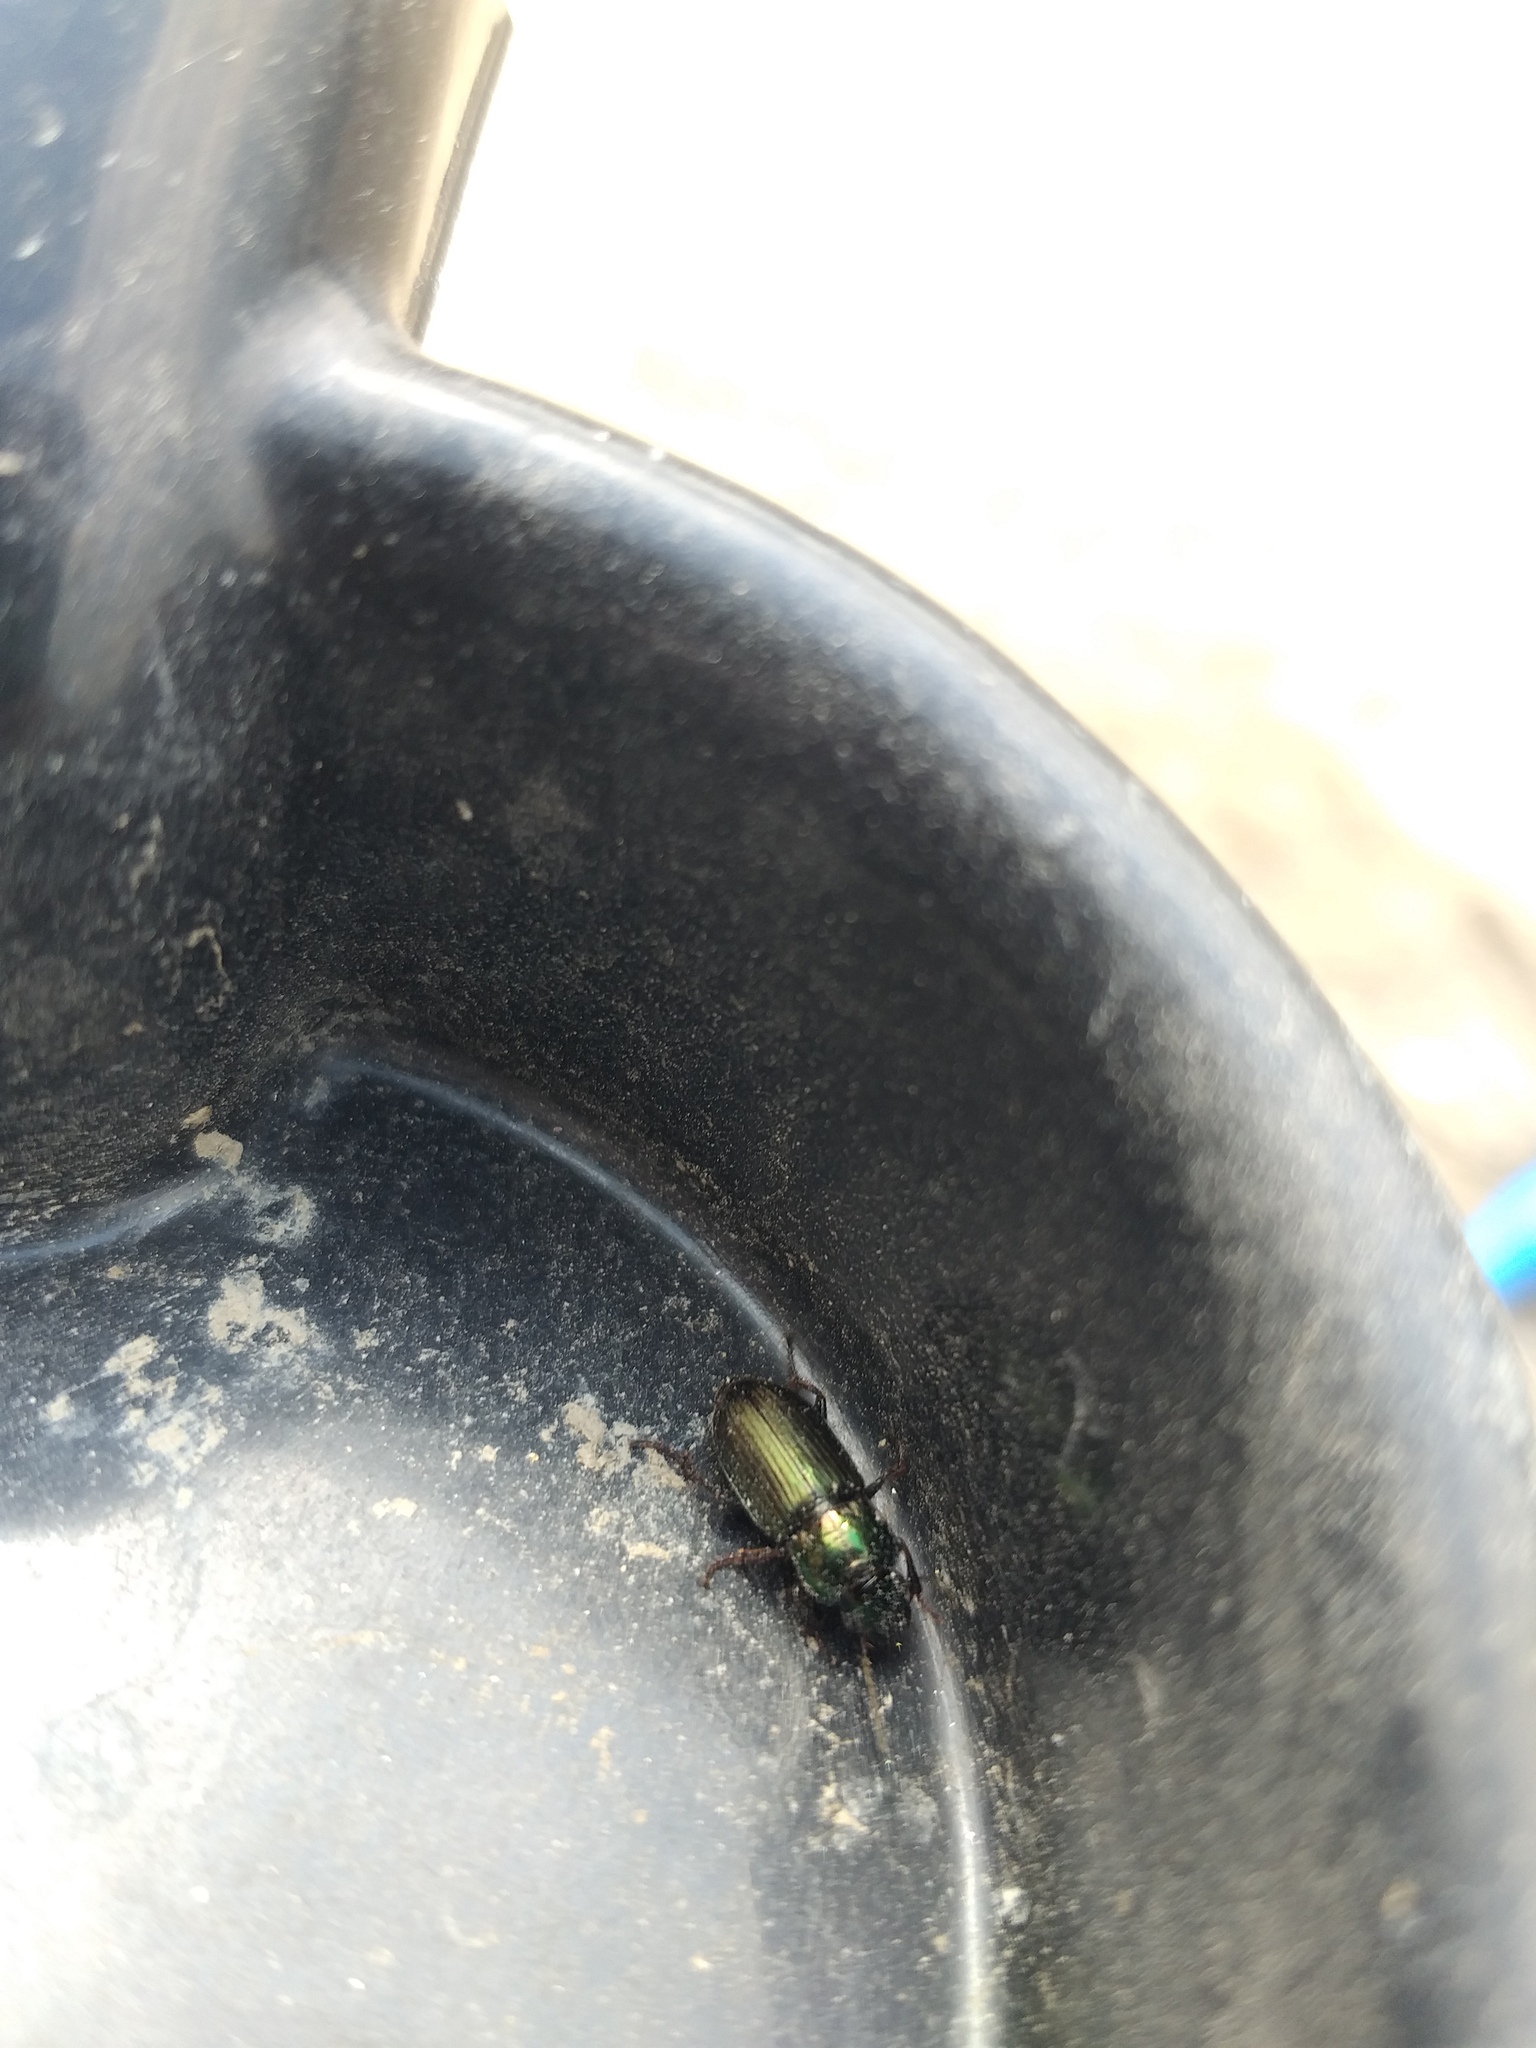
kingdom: Animalia
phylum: Arthropoda
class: Insecta
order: Coleoptera
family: Carabidae
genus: Harpalus
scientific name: Harpalus distinguendus
